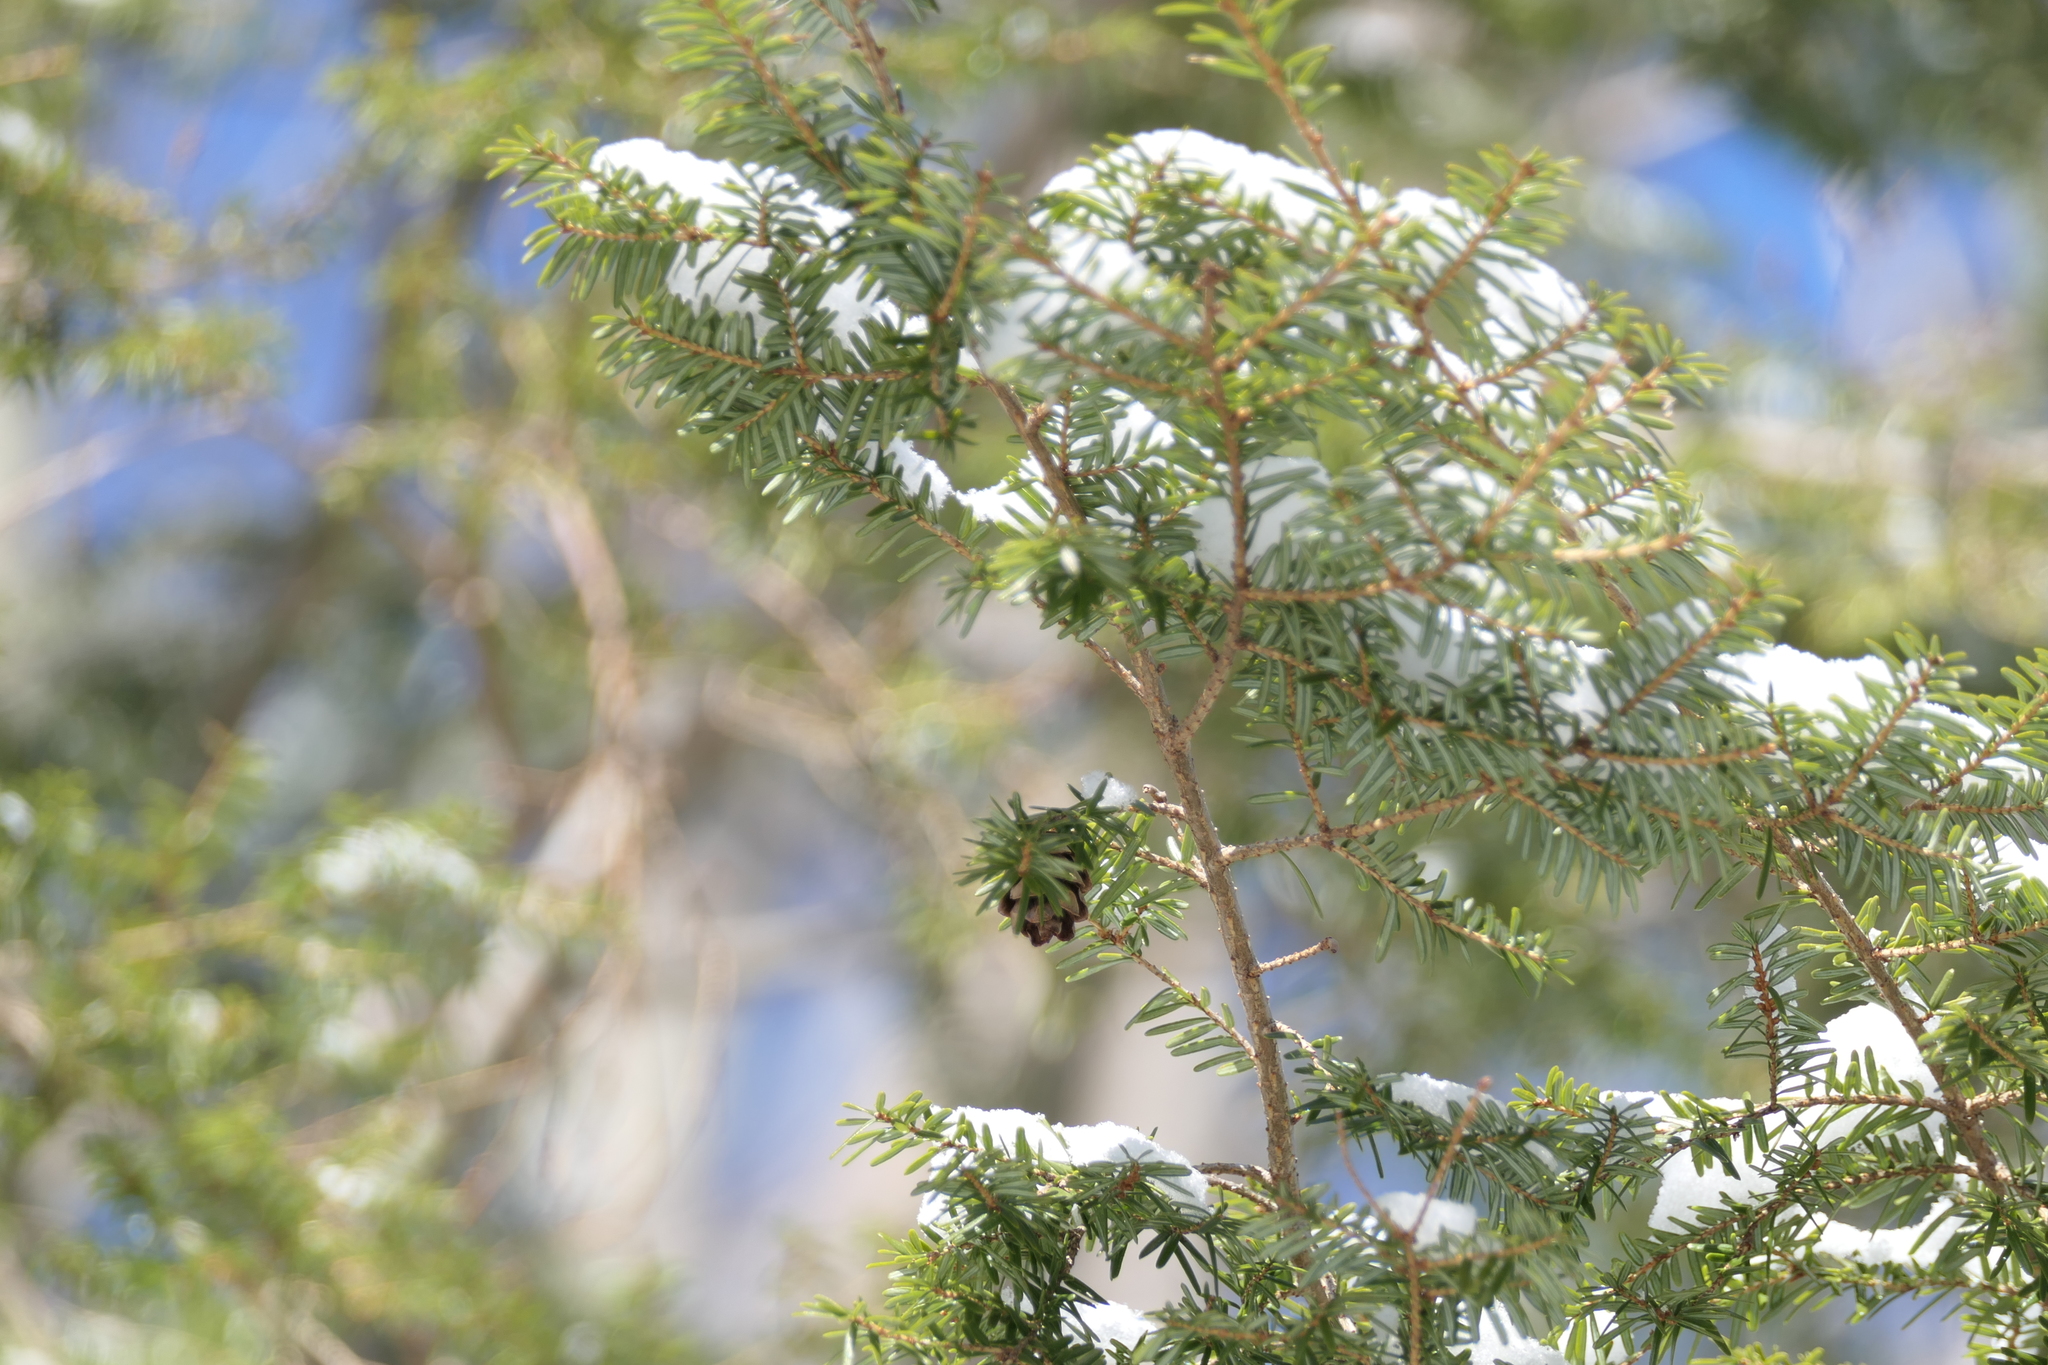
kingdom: Plantae
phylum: Tracheophyta
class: Pinopsida
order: Pinales
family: Pinaceae
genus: Tsuga
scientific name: Tsuga canadensis
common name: Eastern hemlock
